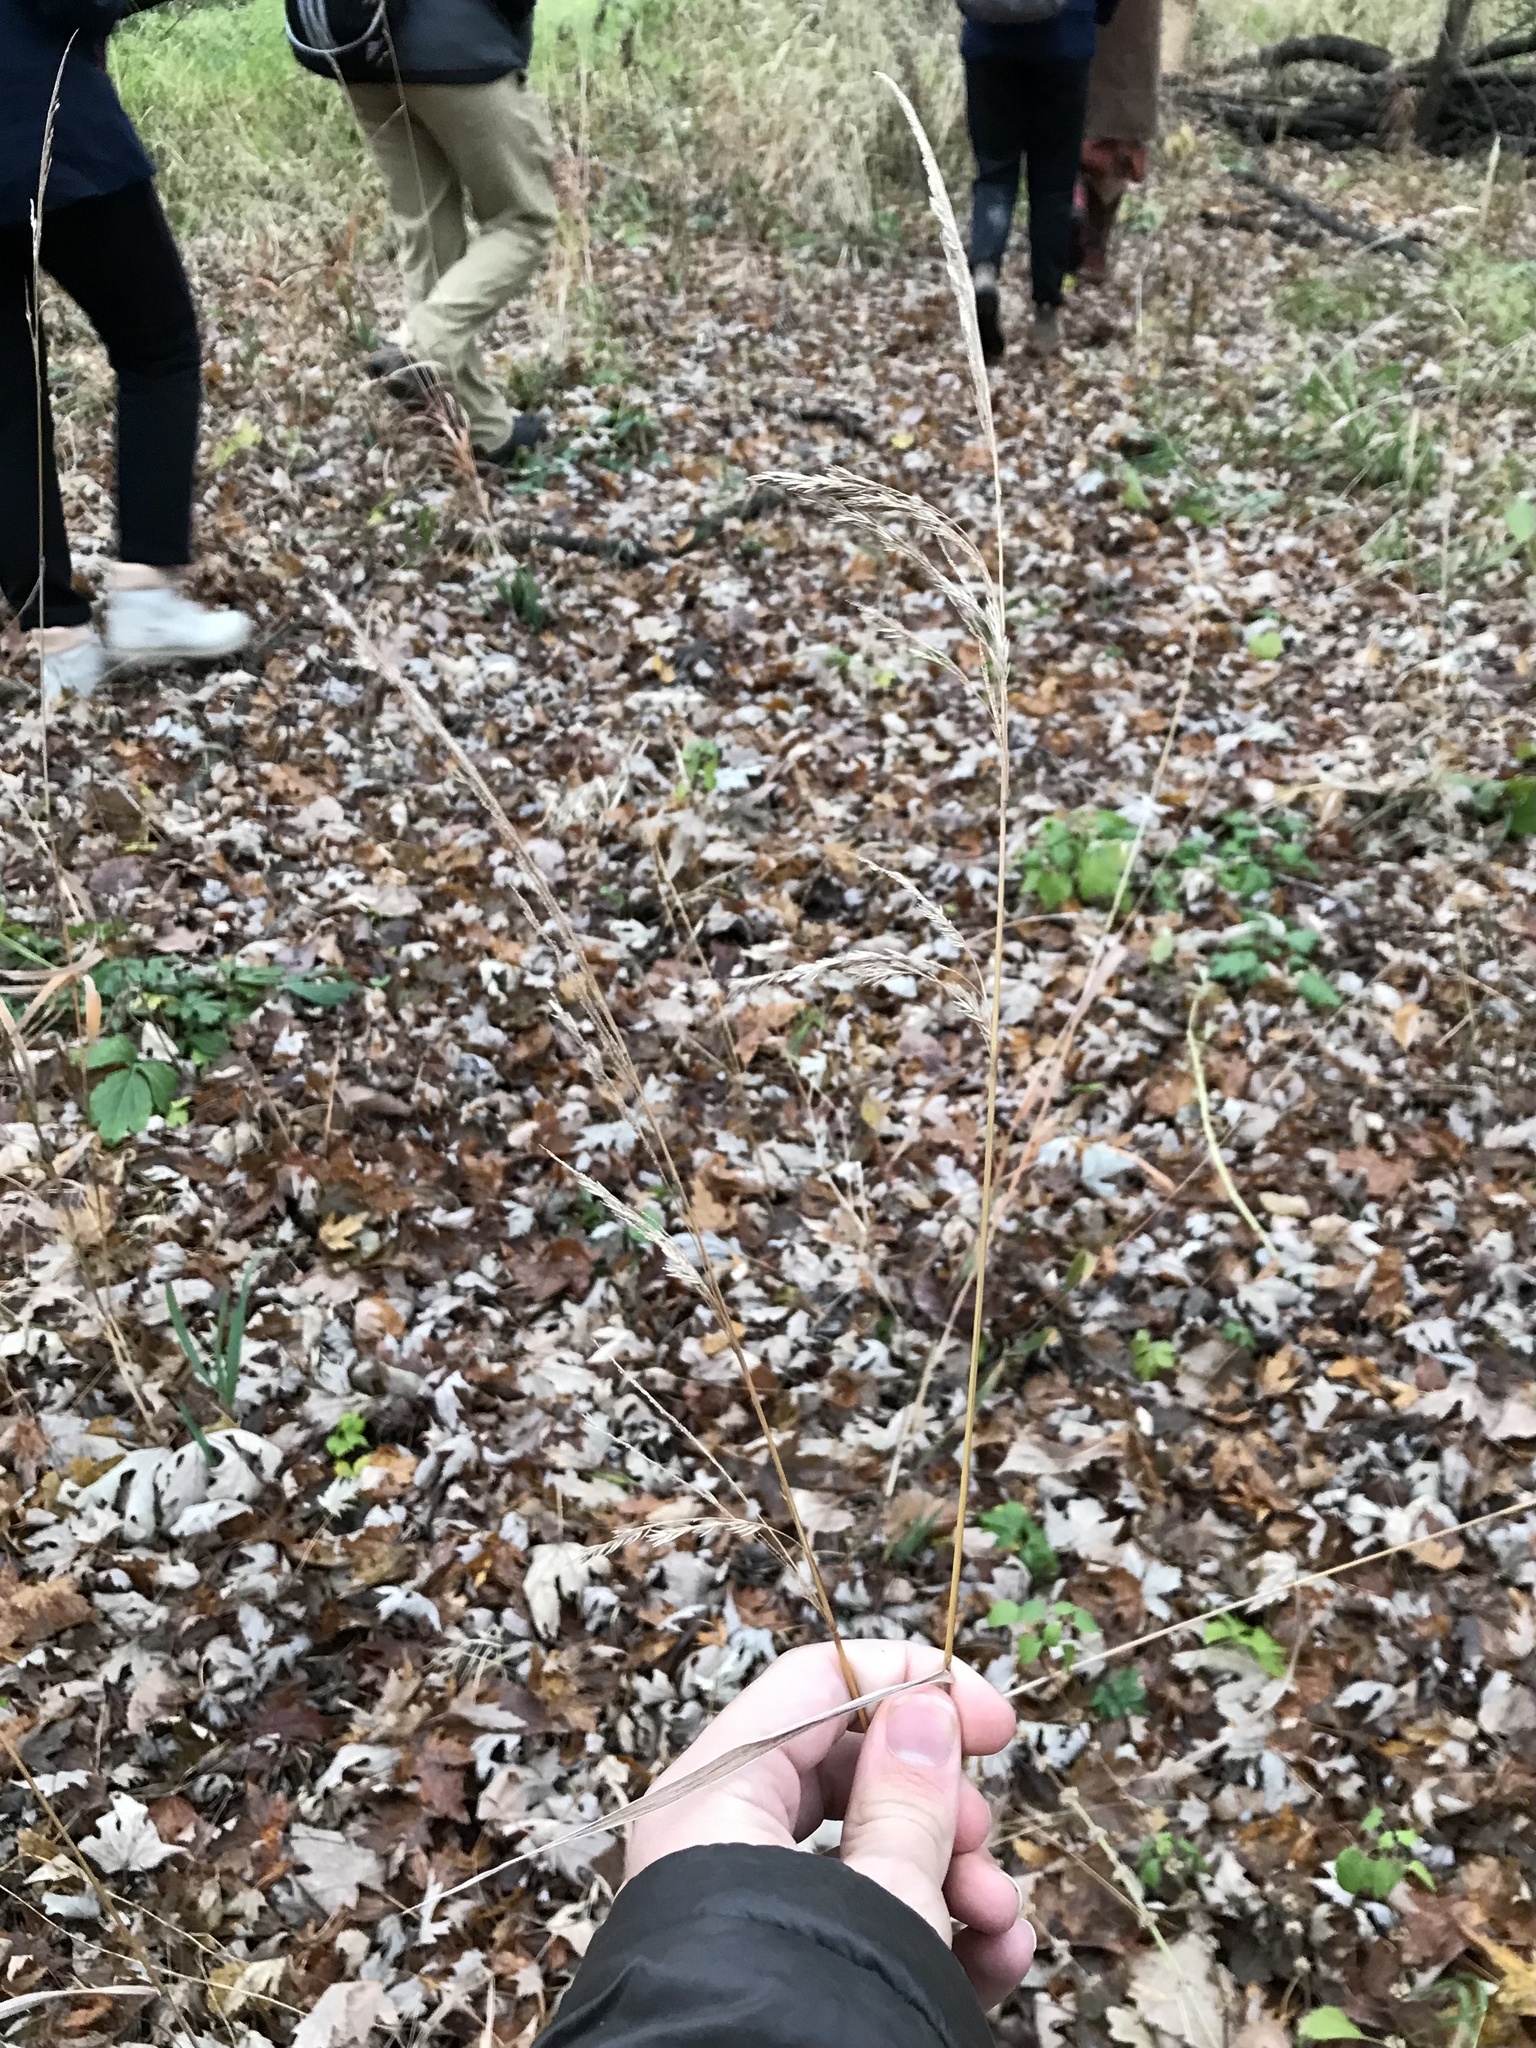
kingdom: Plantae
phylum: Tracheophyta
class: Liliopsida
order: Poales
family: Poaceae
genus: Cinna
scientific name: Cinna arundinacea
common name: Stout woodreed
